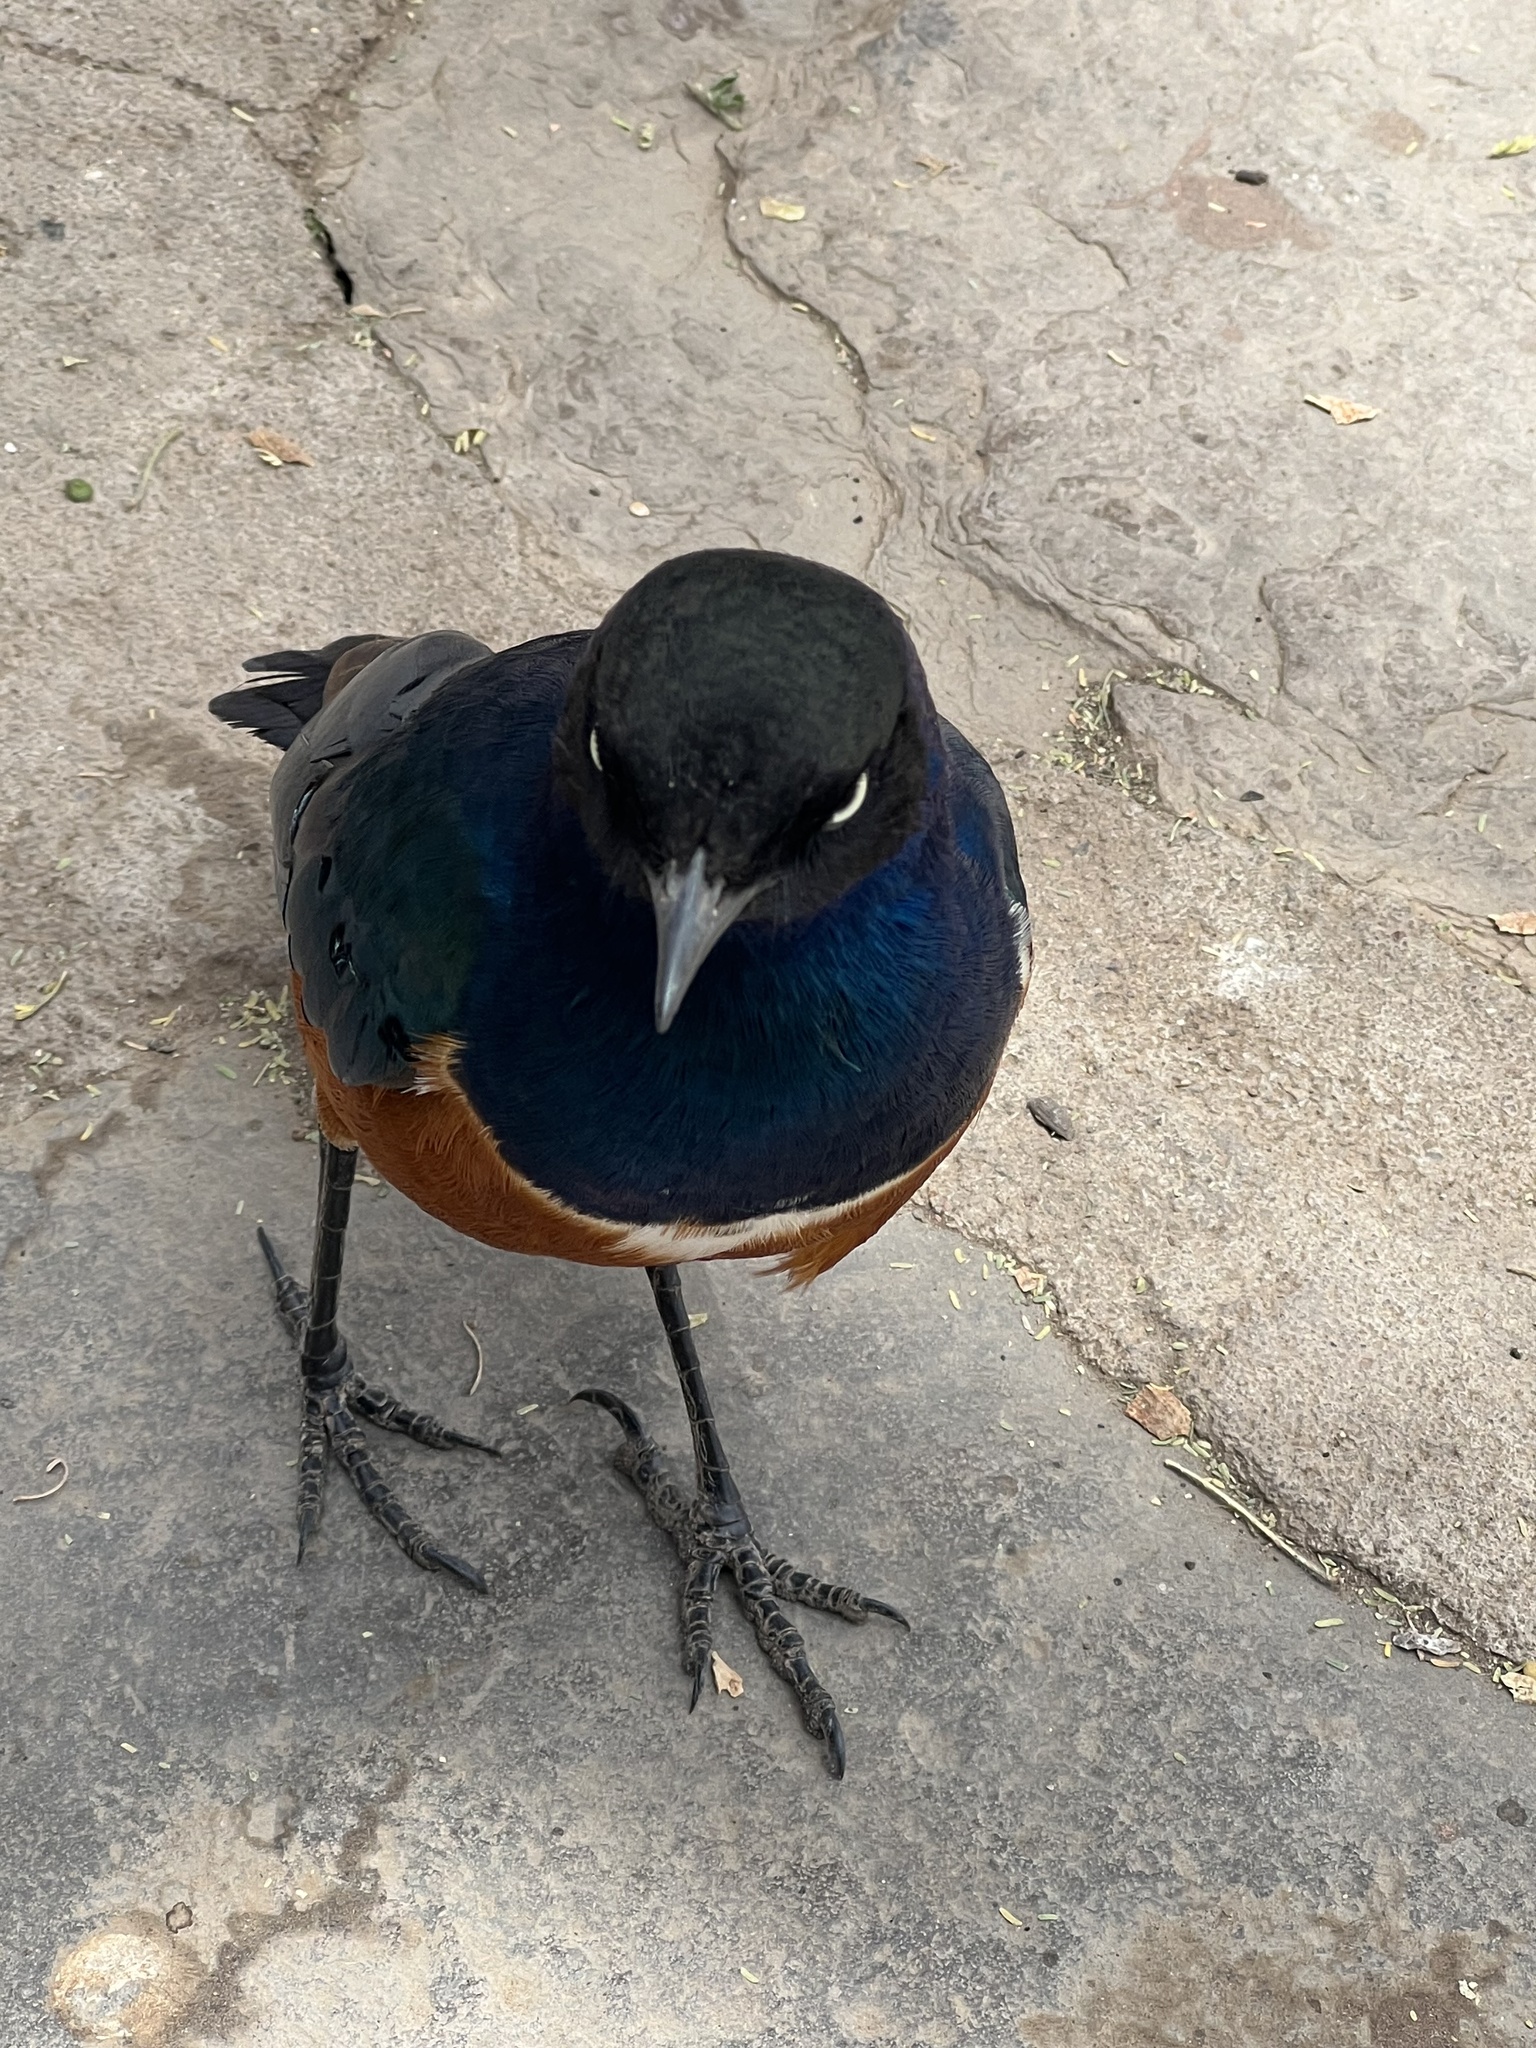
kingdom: Animalia
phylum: Chordata
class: Aves
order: Passeriformes
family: Sturnidae
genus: Lamprotornis
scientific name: Lamprotornis superbus
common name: Superb starling
